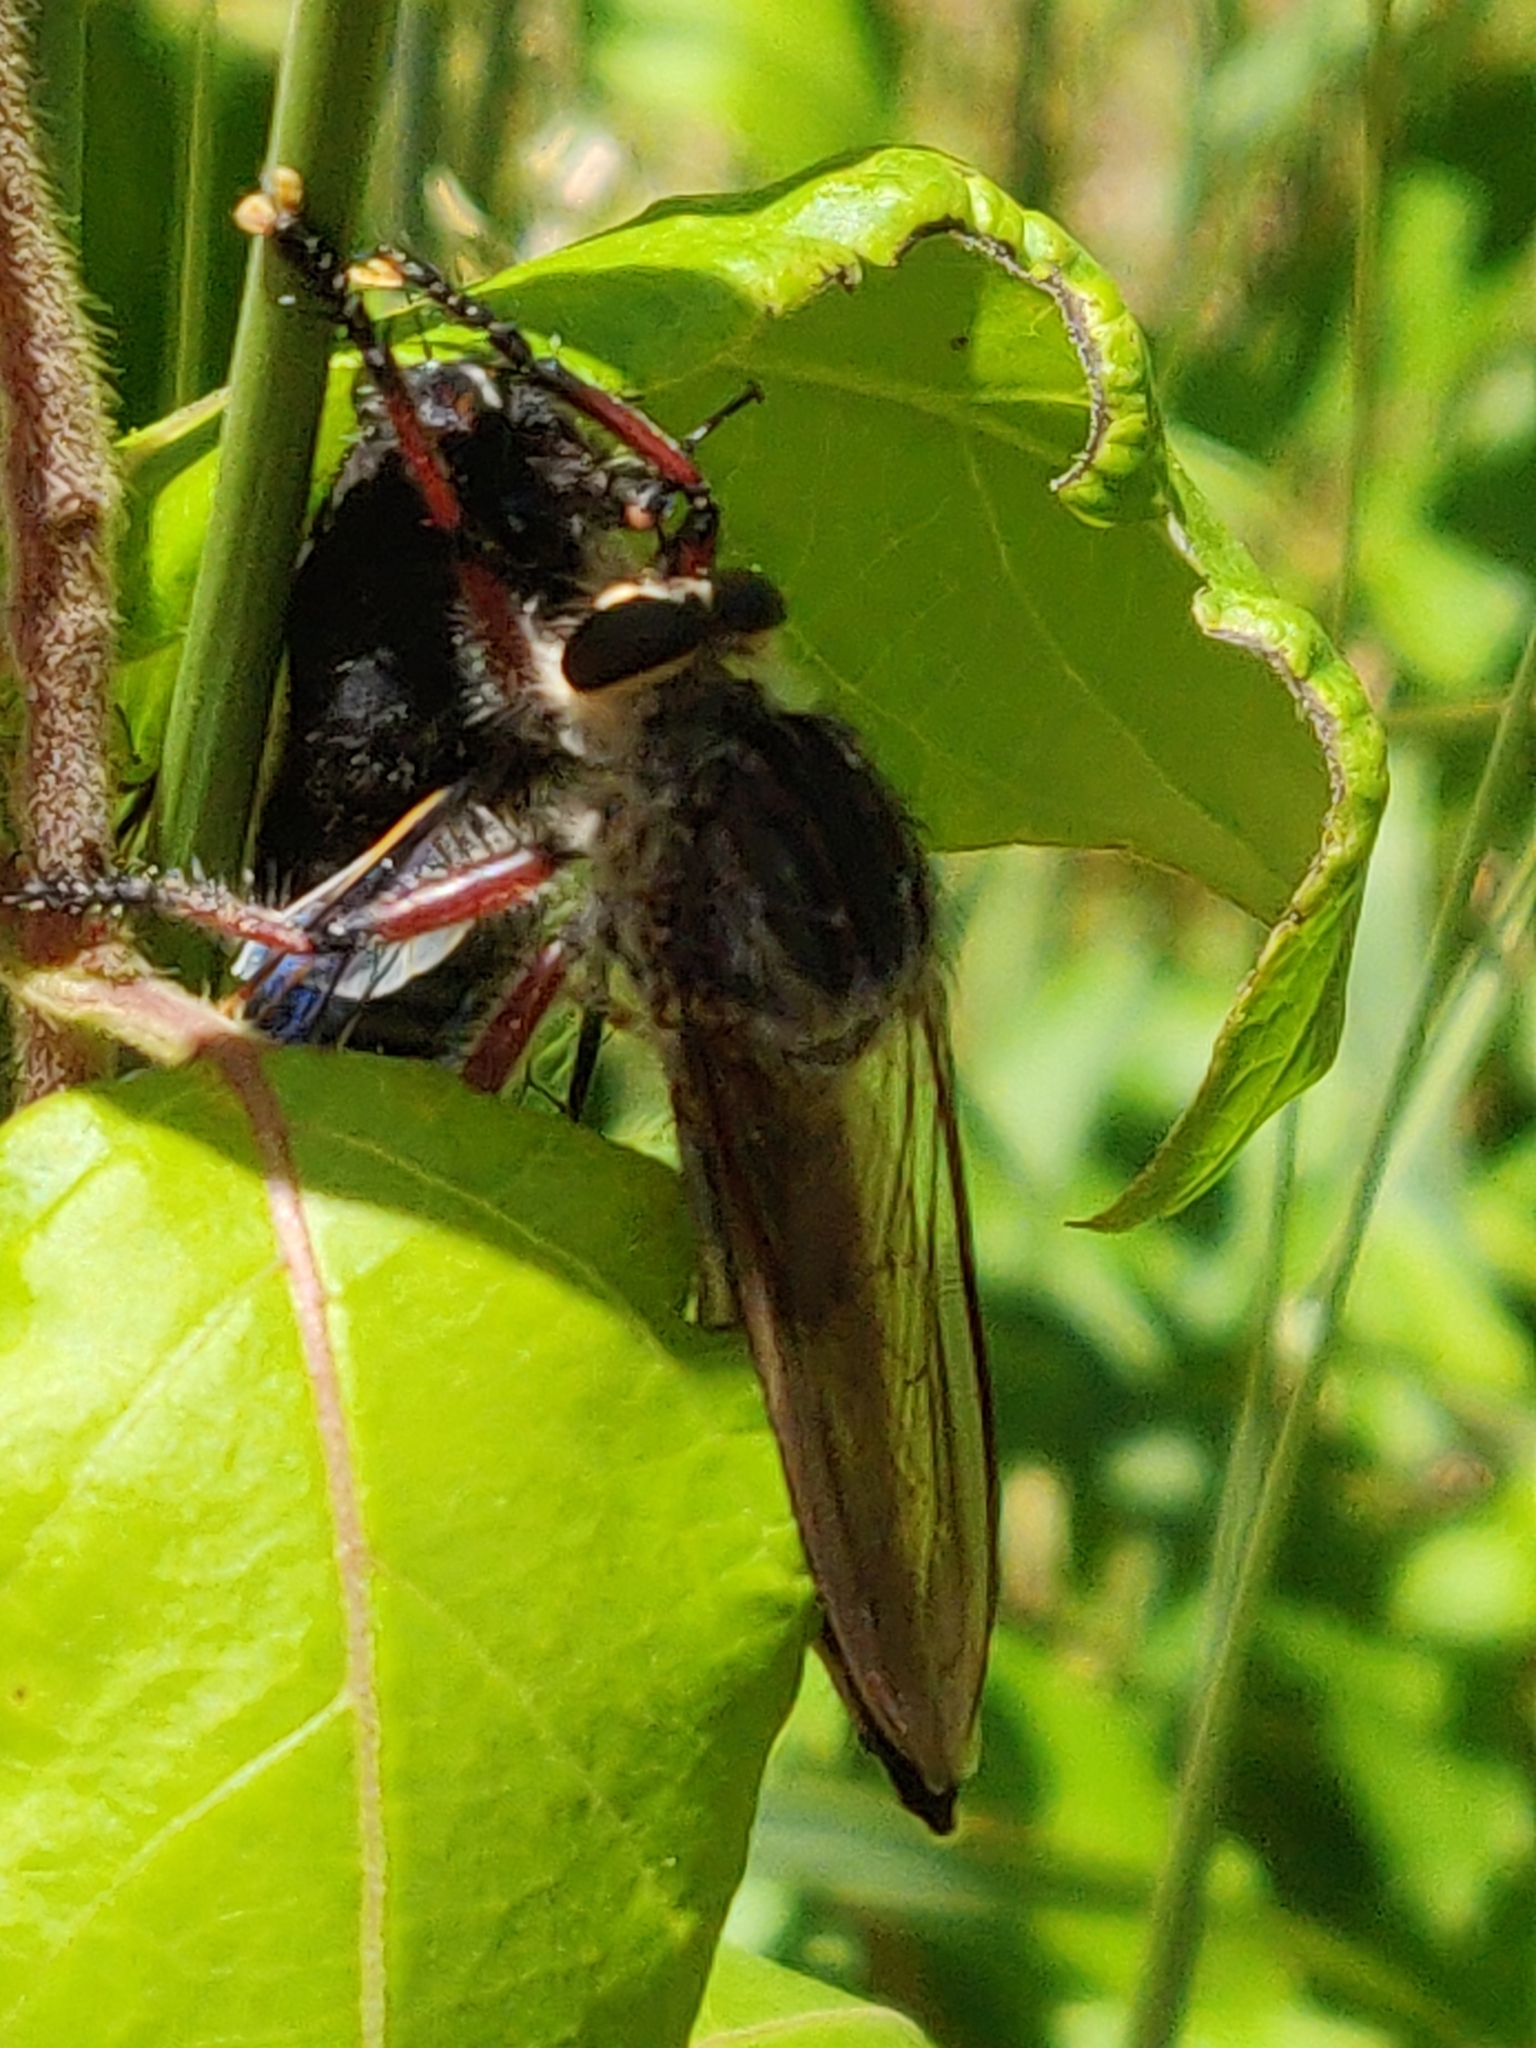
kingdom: Animalia
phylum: Arthropoda
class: Insecta
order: Diptera
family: Asilidae
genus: Neoaratus
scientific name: Neoaratus hercules
